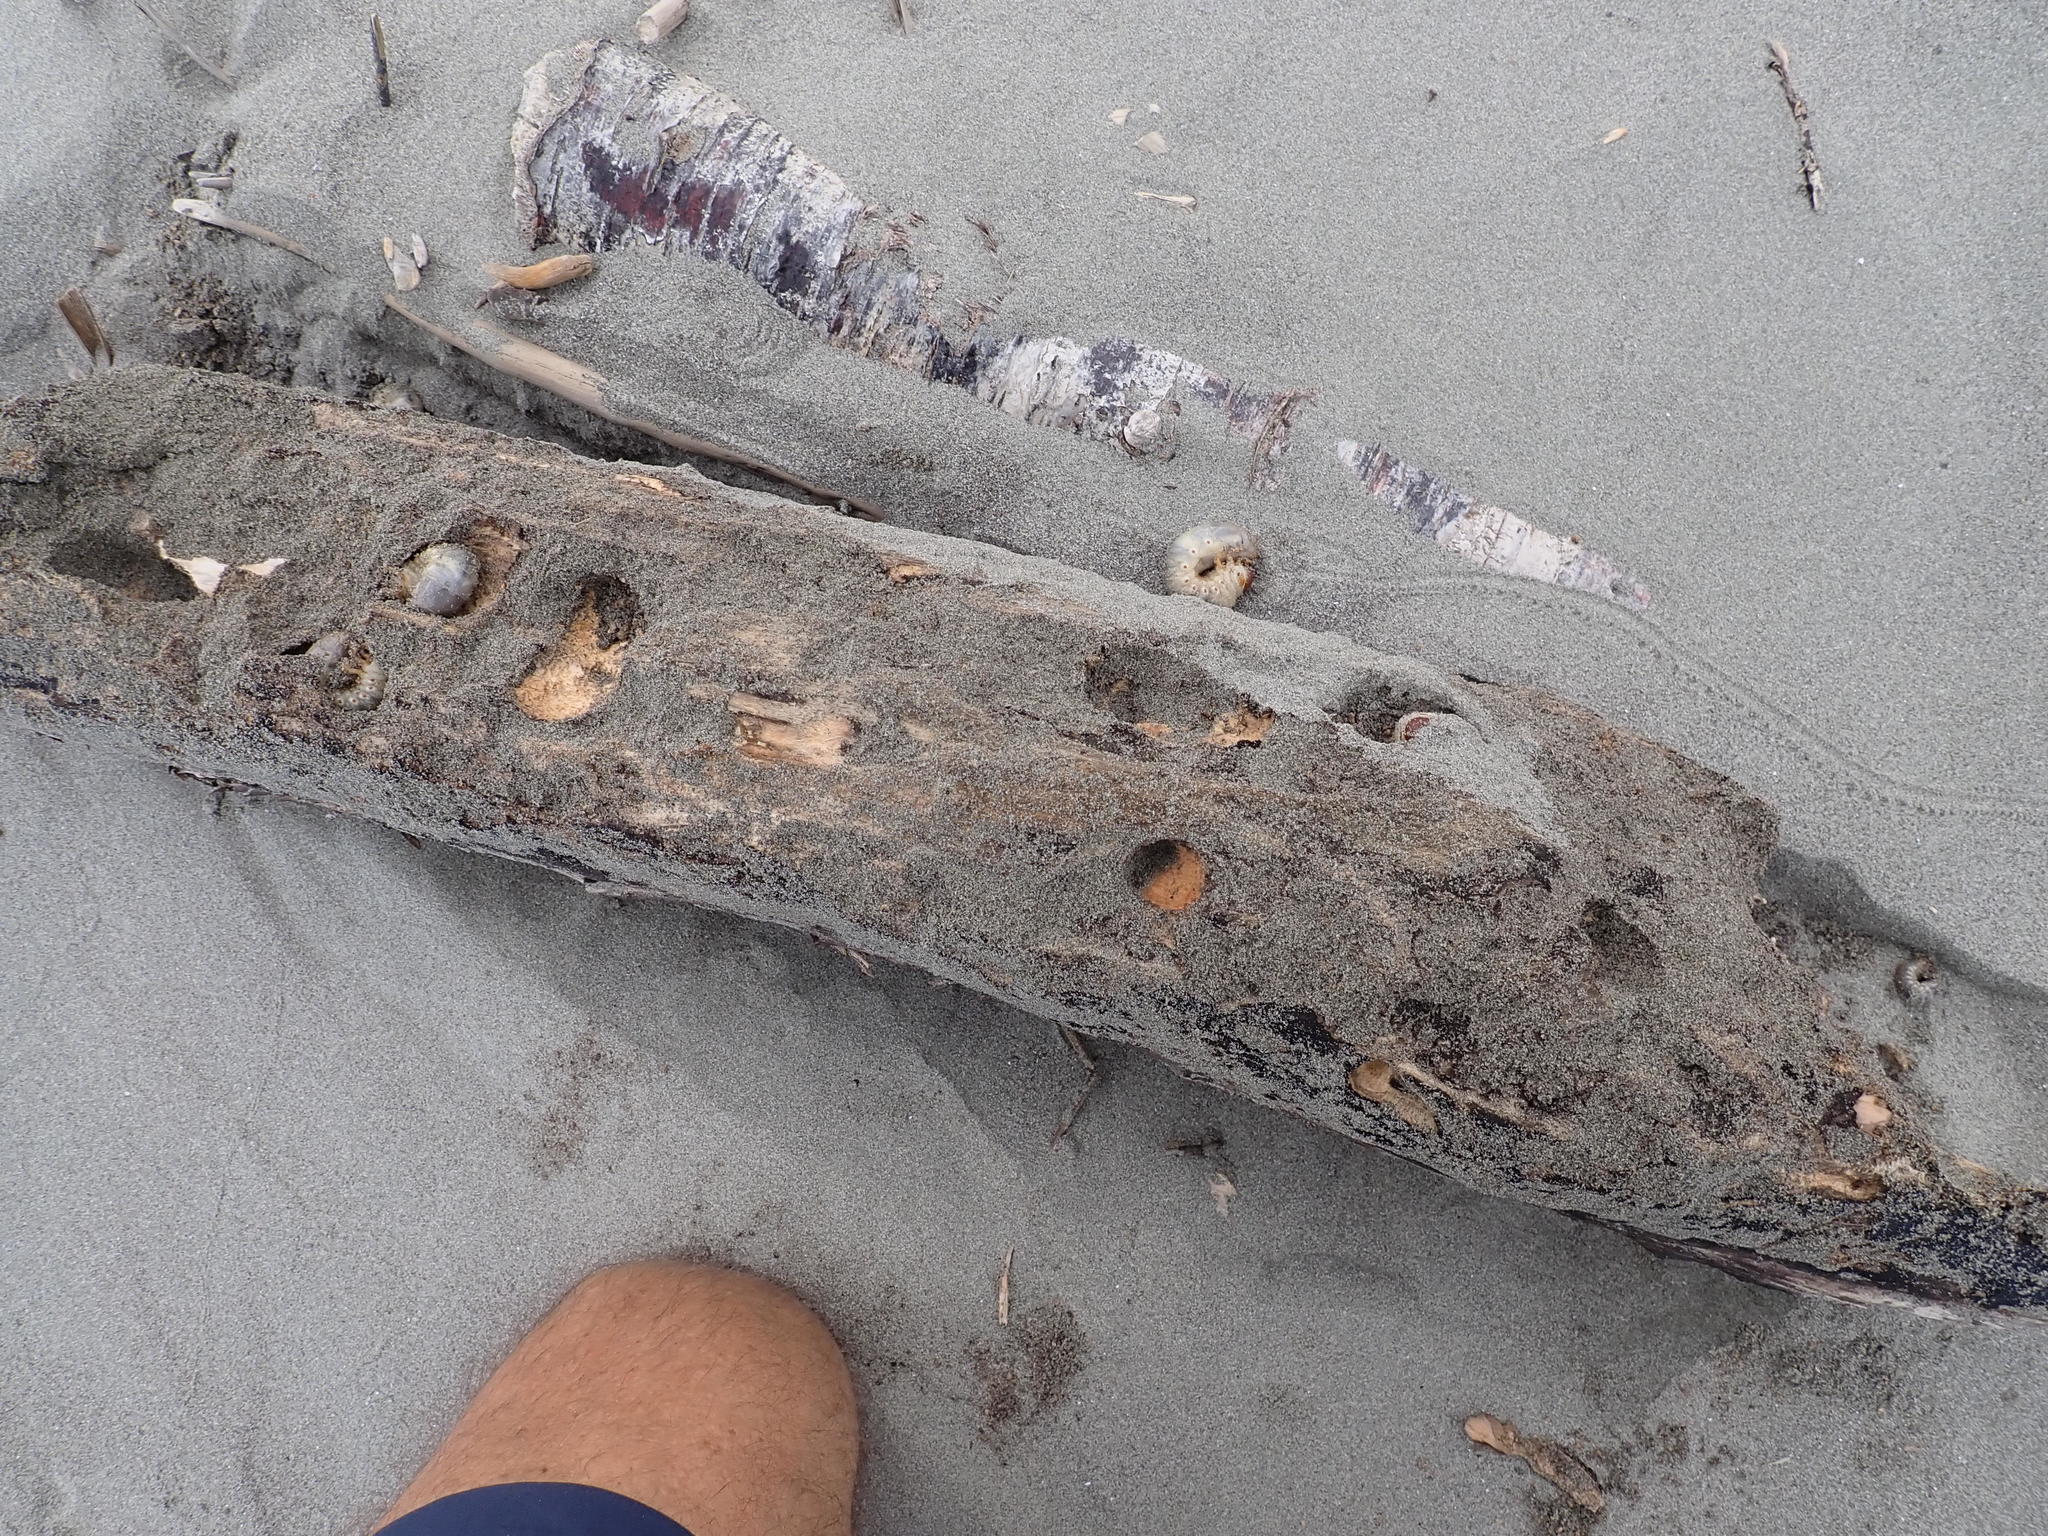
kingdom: Animalia
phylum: Arthropoda
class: Insecta
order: Coleoptera
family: Scarabaeidae
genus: Pericoptus
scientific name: Pericoptus truncatus
